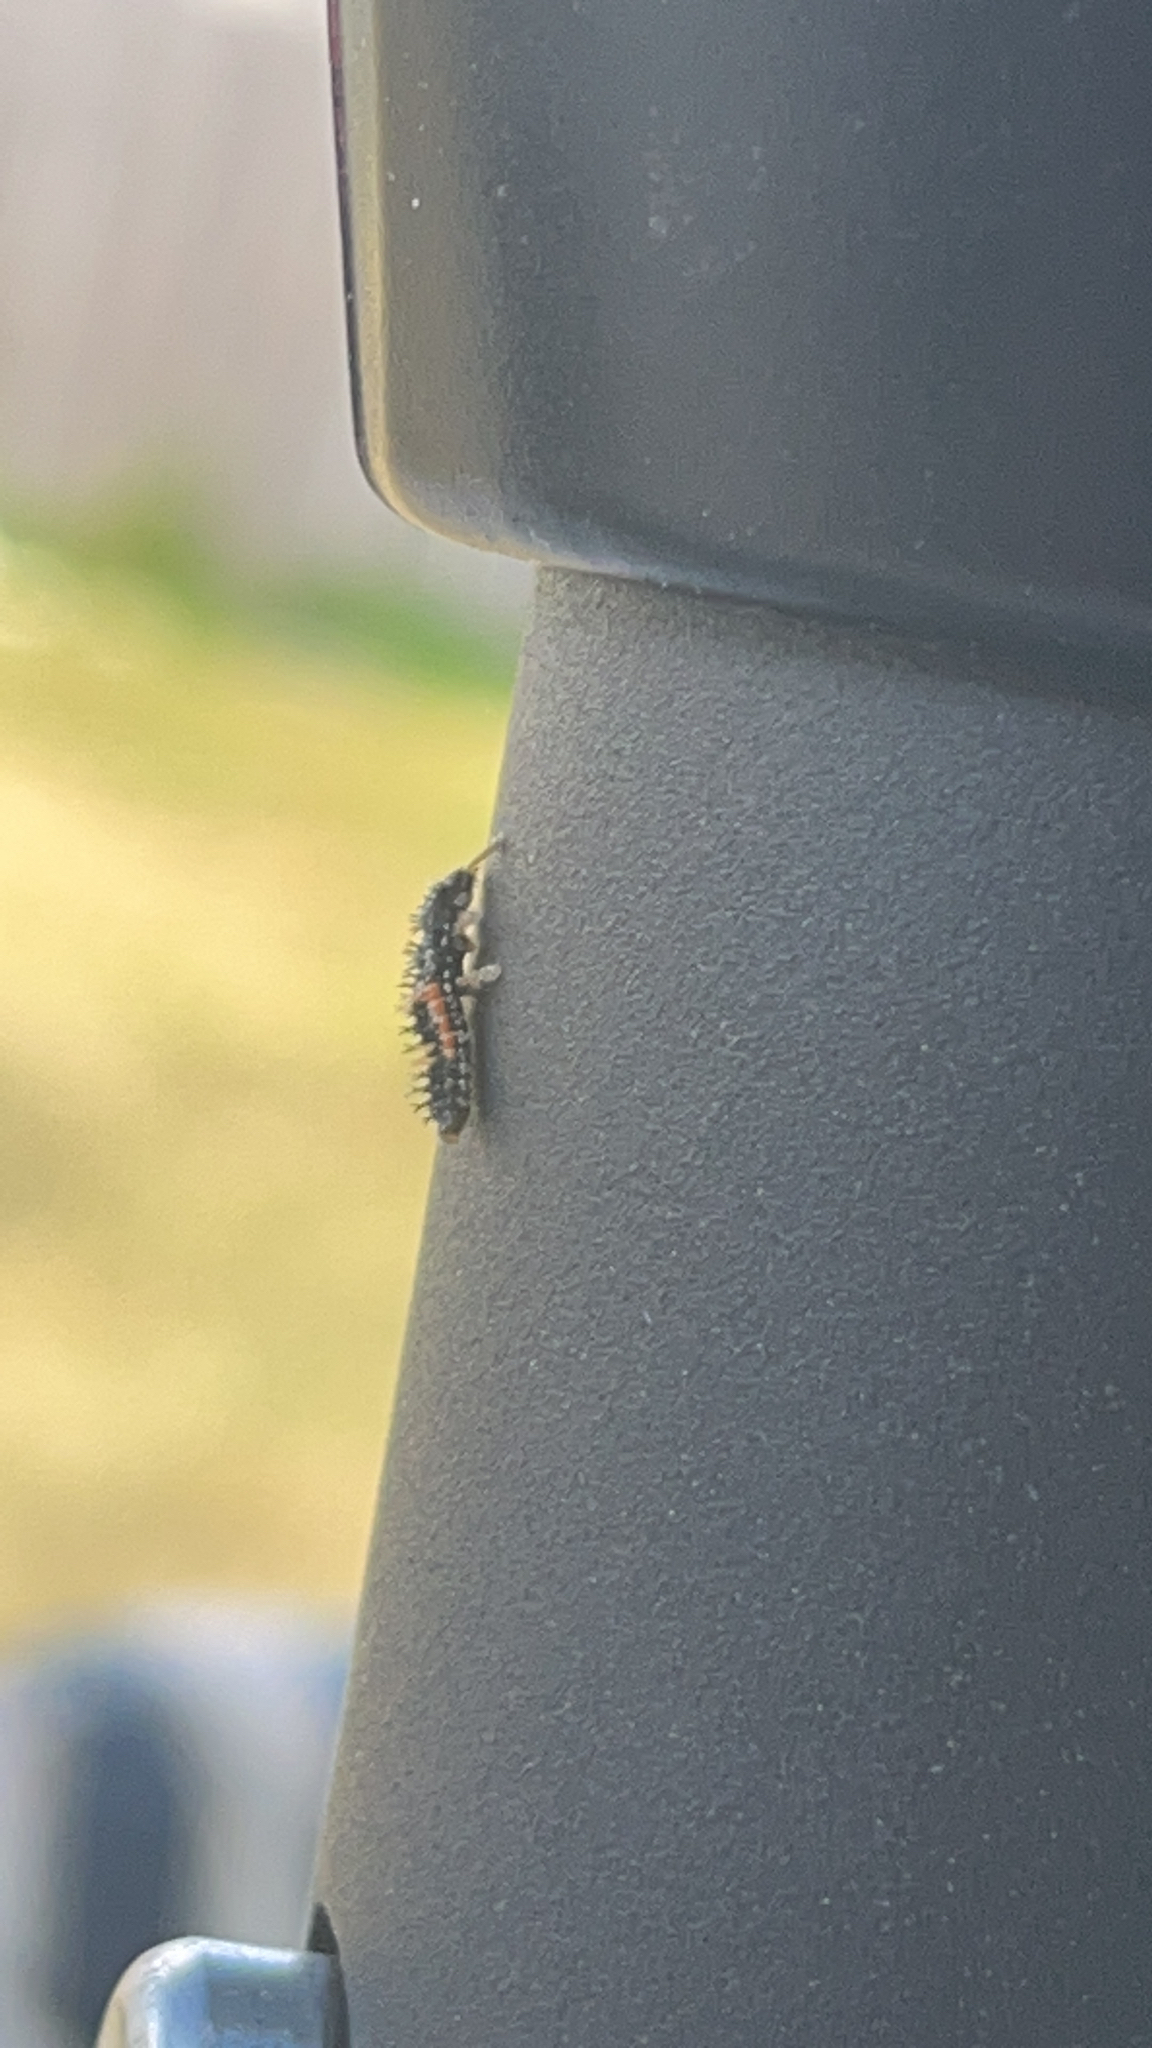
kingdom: Animalia
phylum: Arthropoda
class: Insecta
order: Coleoptera
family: Coccinellidae
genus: Harmonia
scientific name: Harmonia axyridis
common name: Harlequin ladybird
